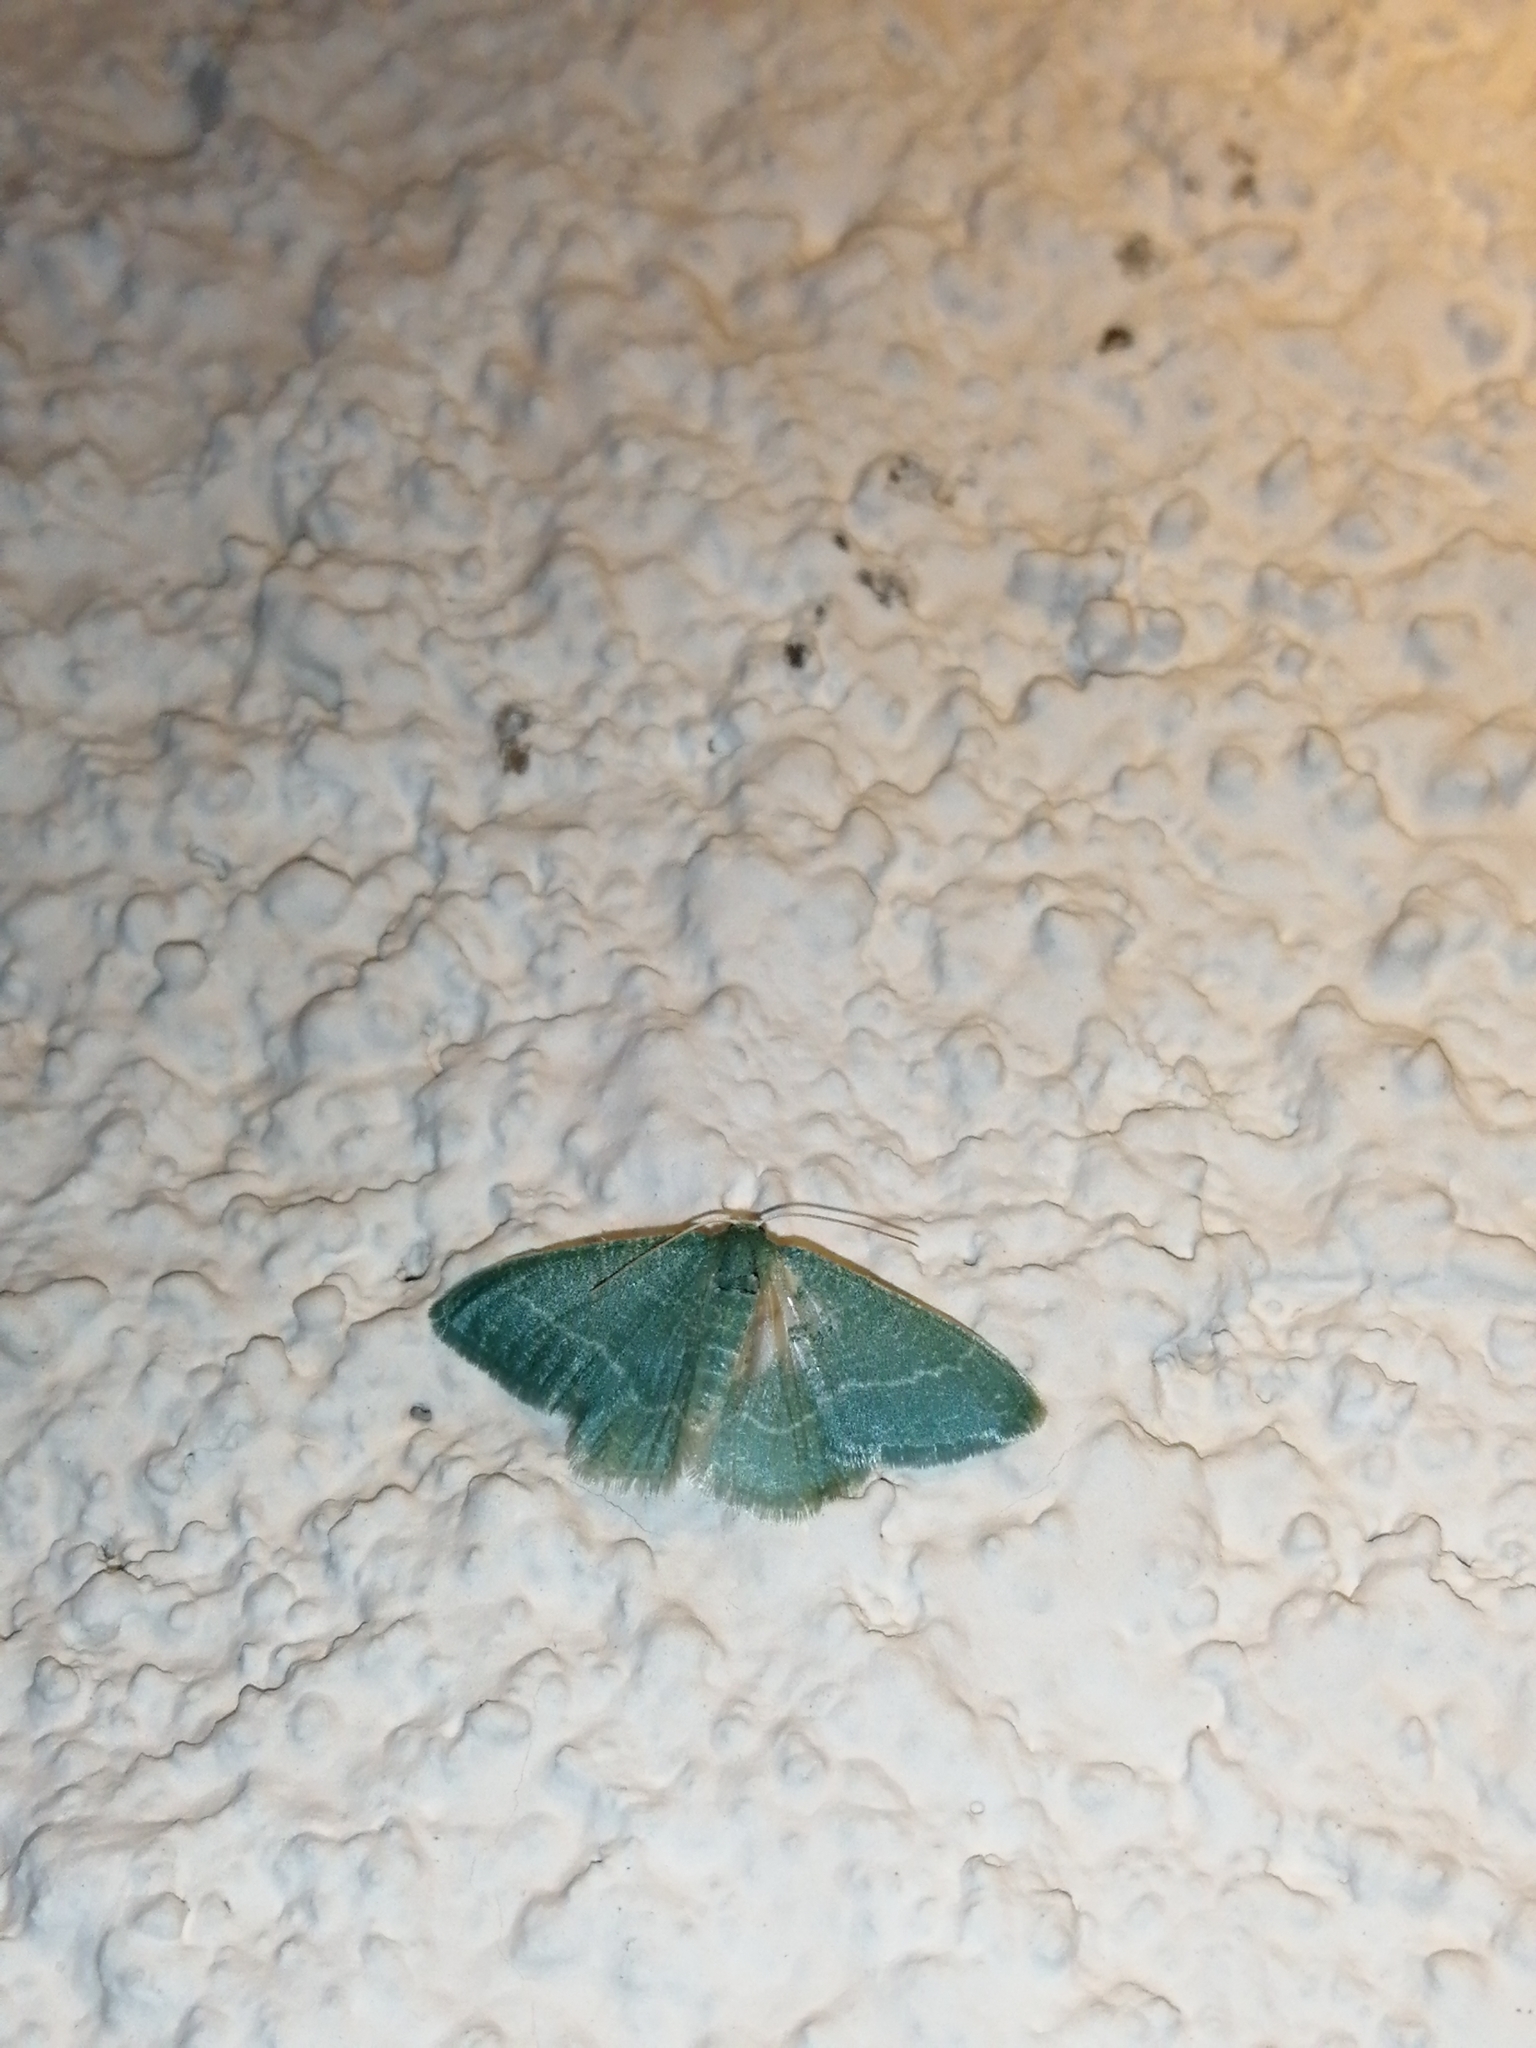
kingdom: Animalia
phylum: Arthropoda
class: Insecta
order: Lepidoptera
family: Geometridae
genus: Chlorissa
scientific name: Chlorissa etruscaria
